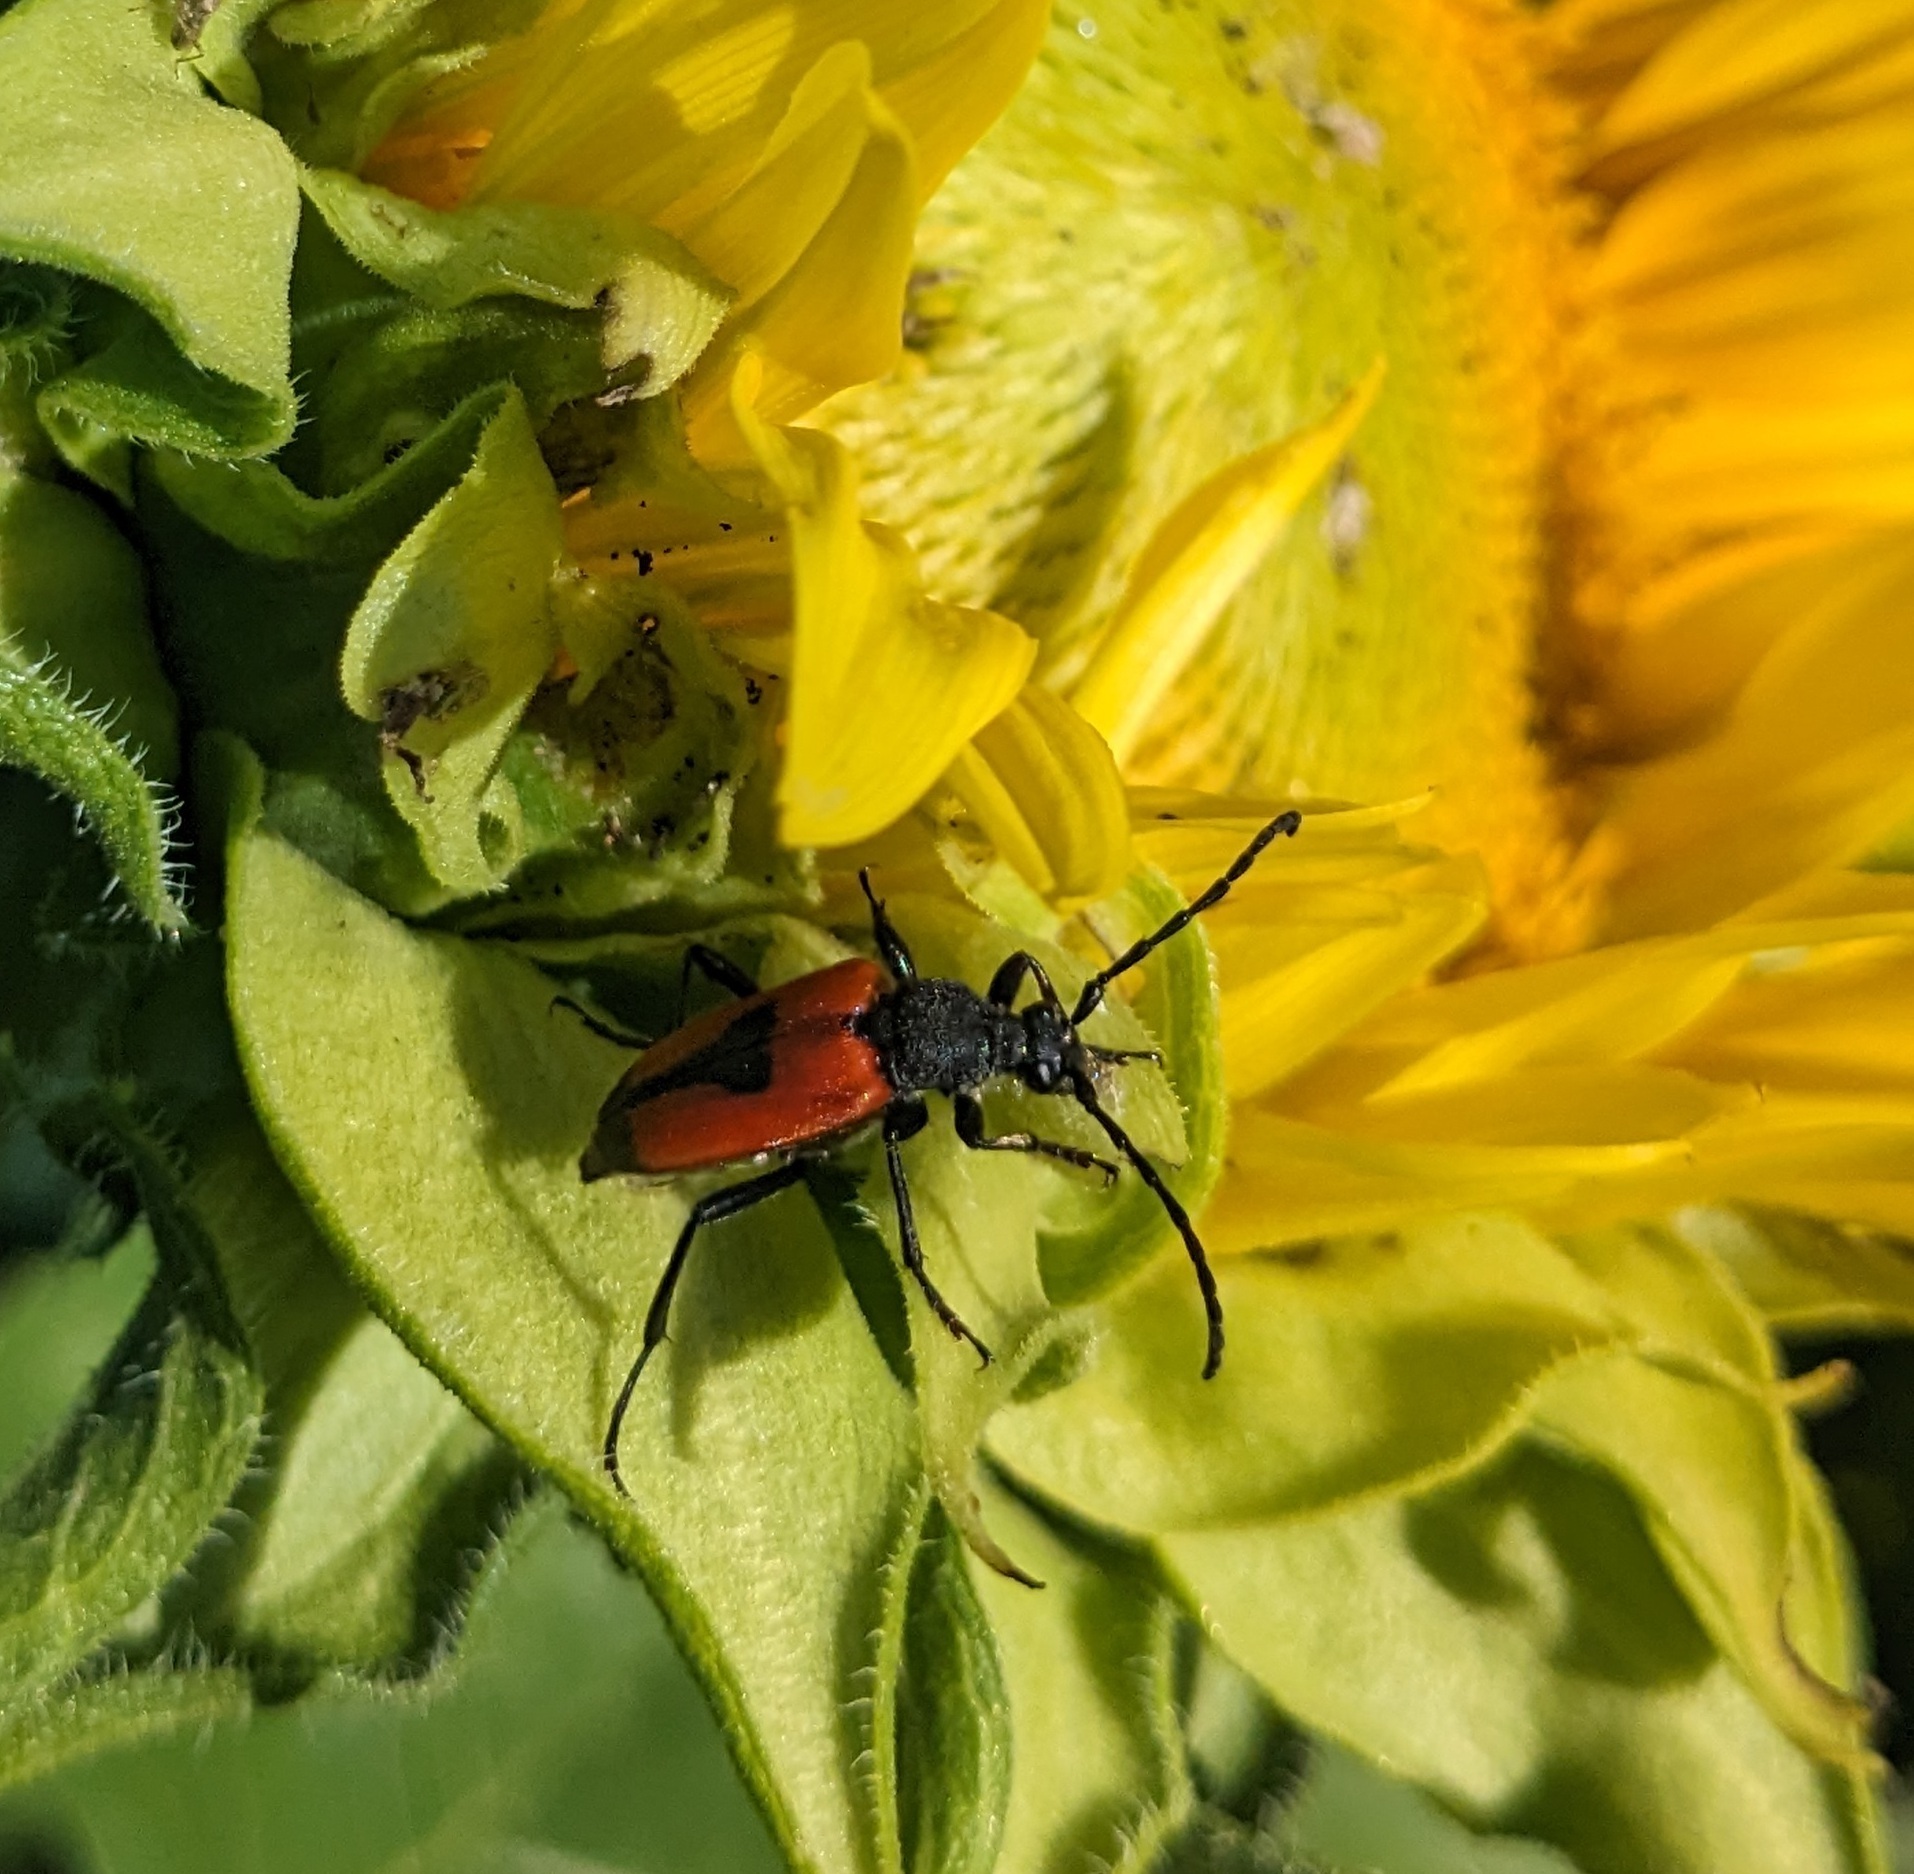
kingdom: Animalia
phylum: Arthropoda
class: Insecta
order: Coleoptera
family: Cerambycidae
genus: Stictoleptura
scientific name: Stictoleptura cordigera
